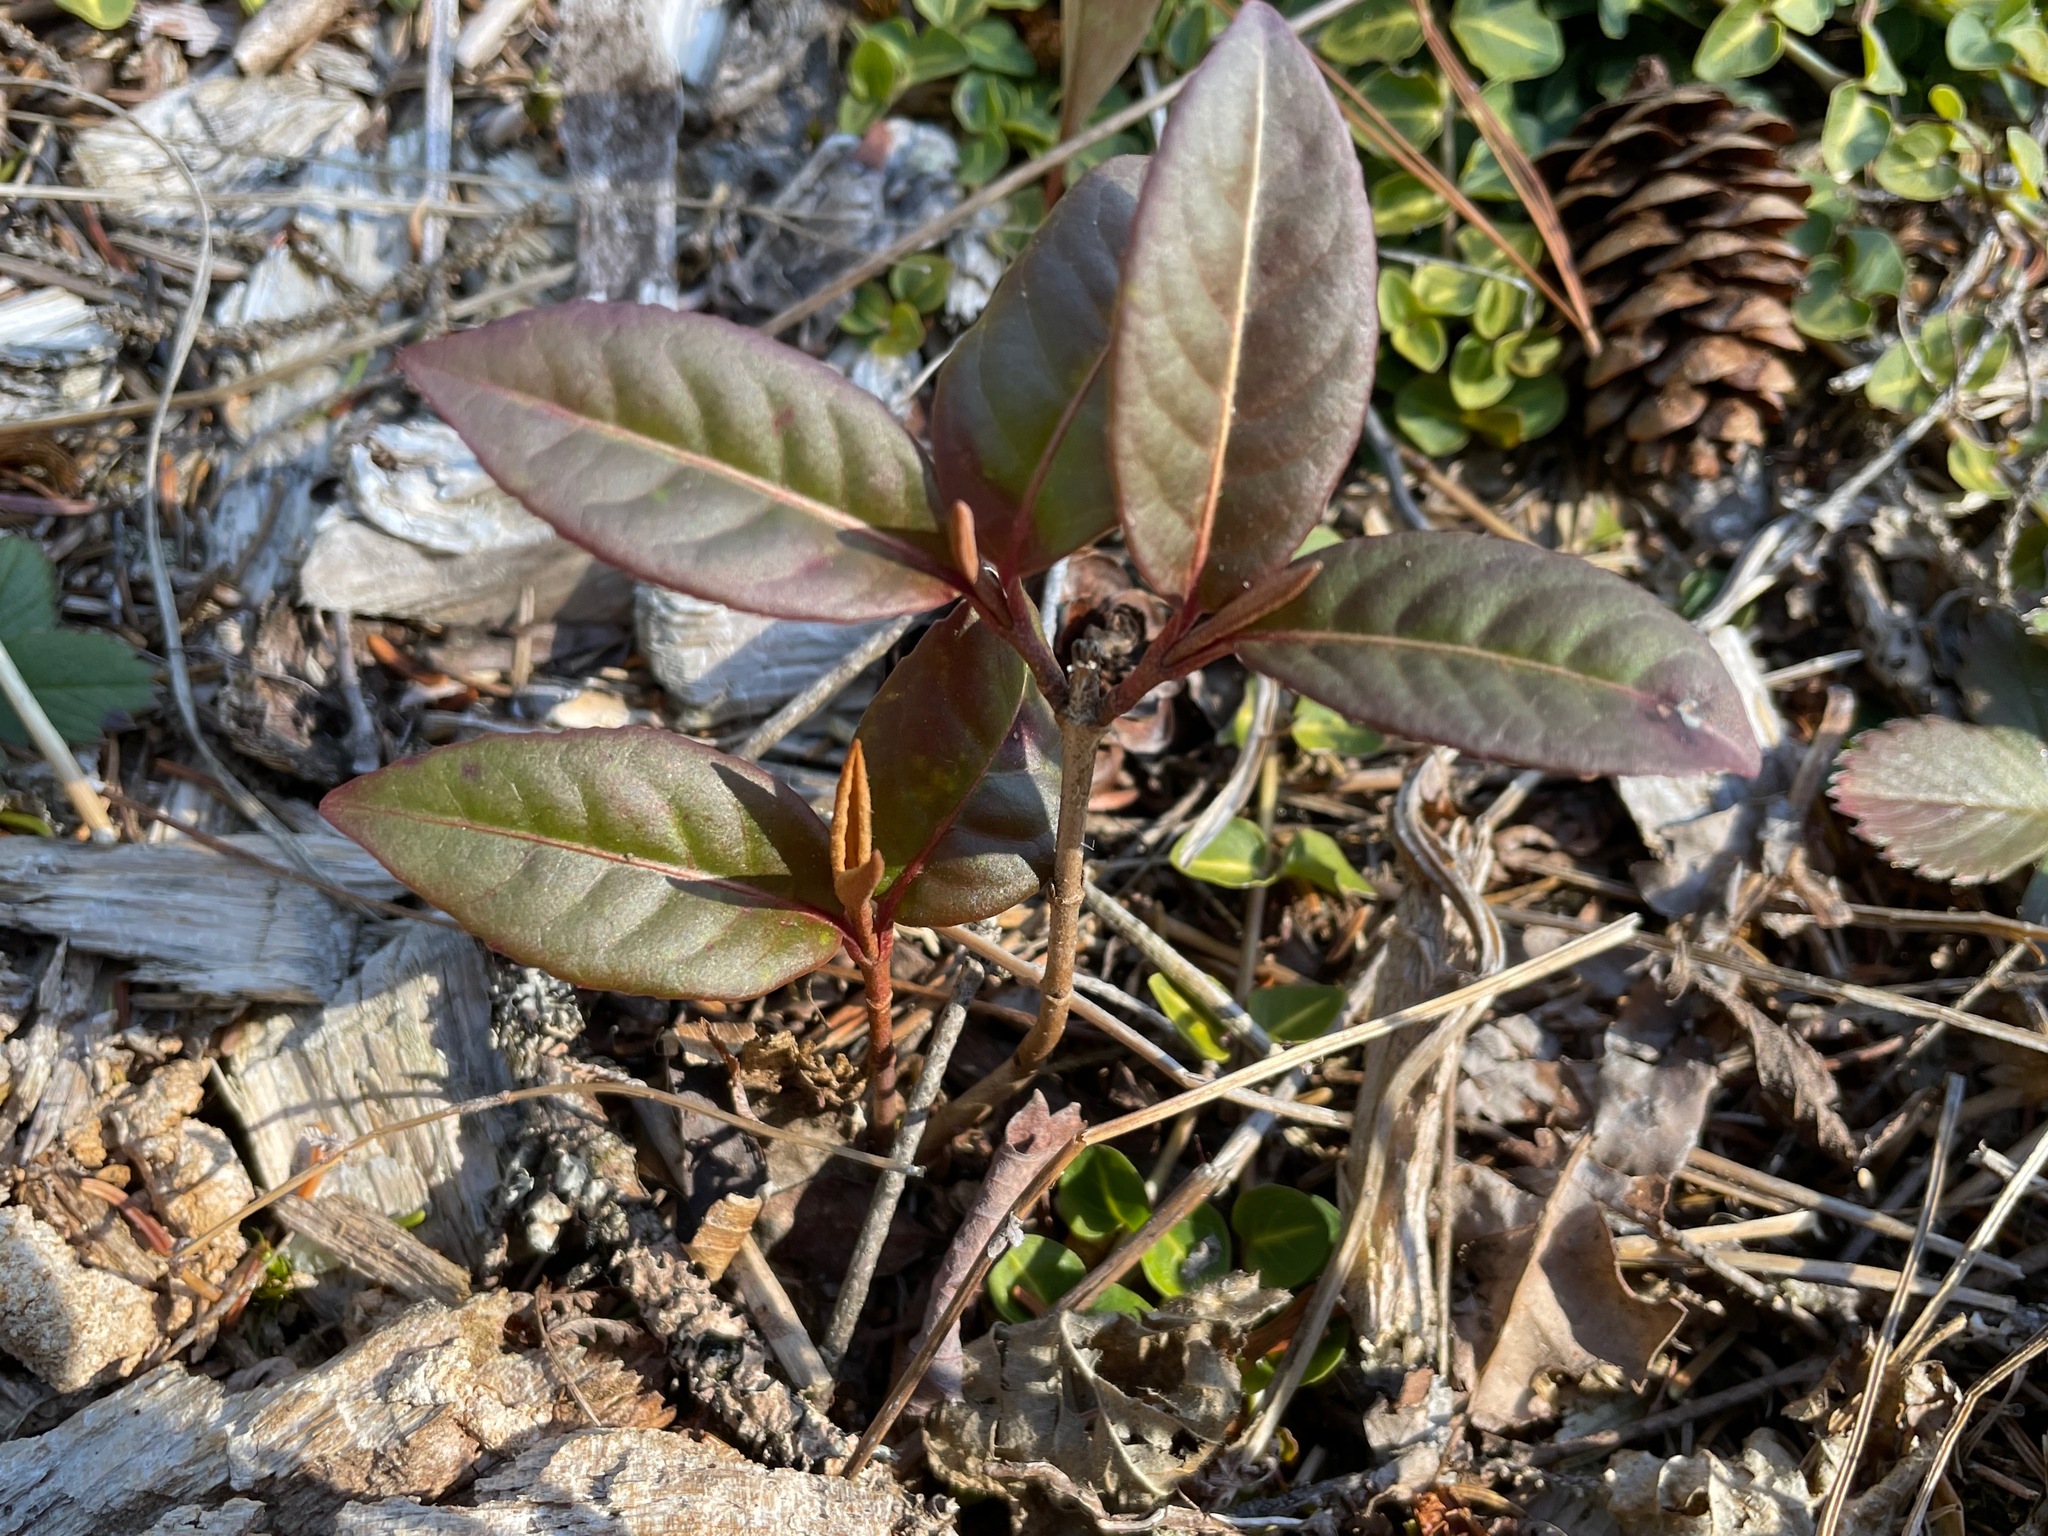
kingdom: Plantae
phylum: Tracheophyta
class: Magnoliopsida
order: Dipsacales
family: Viburnaceae
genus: Viburnum
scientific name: Viburnum cassinoides
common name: Swamp haw
